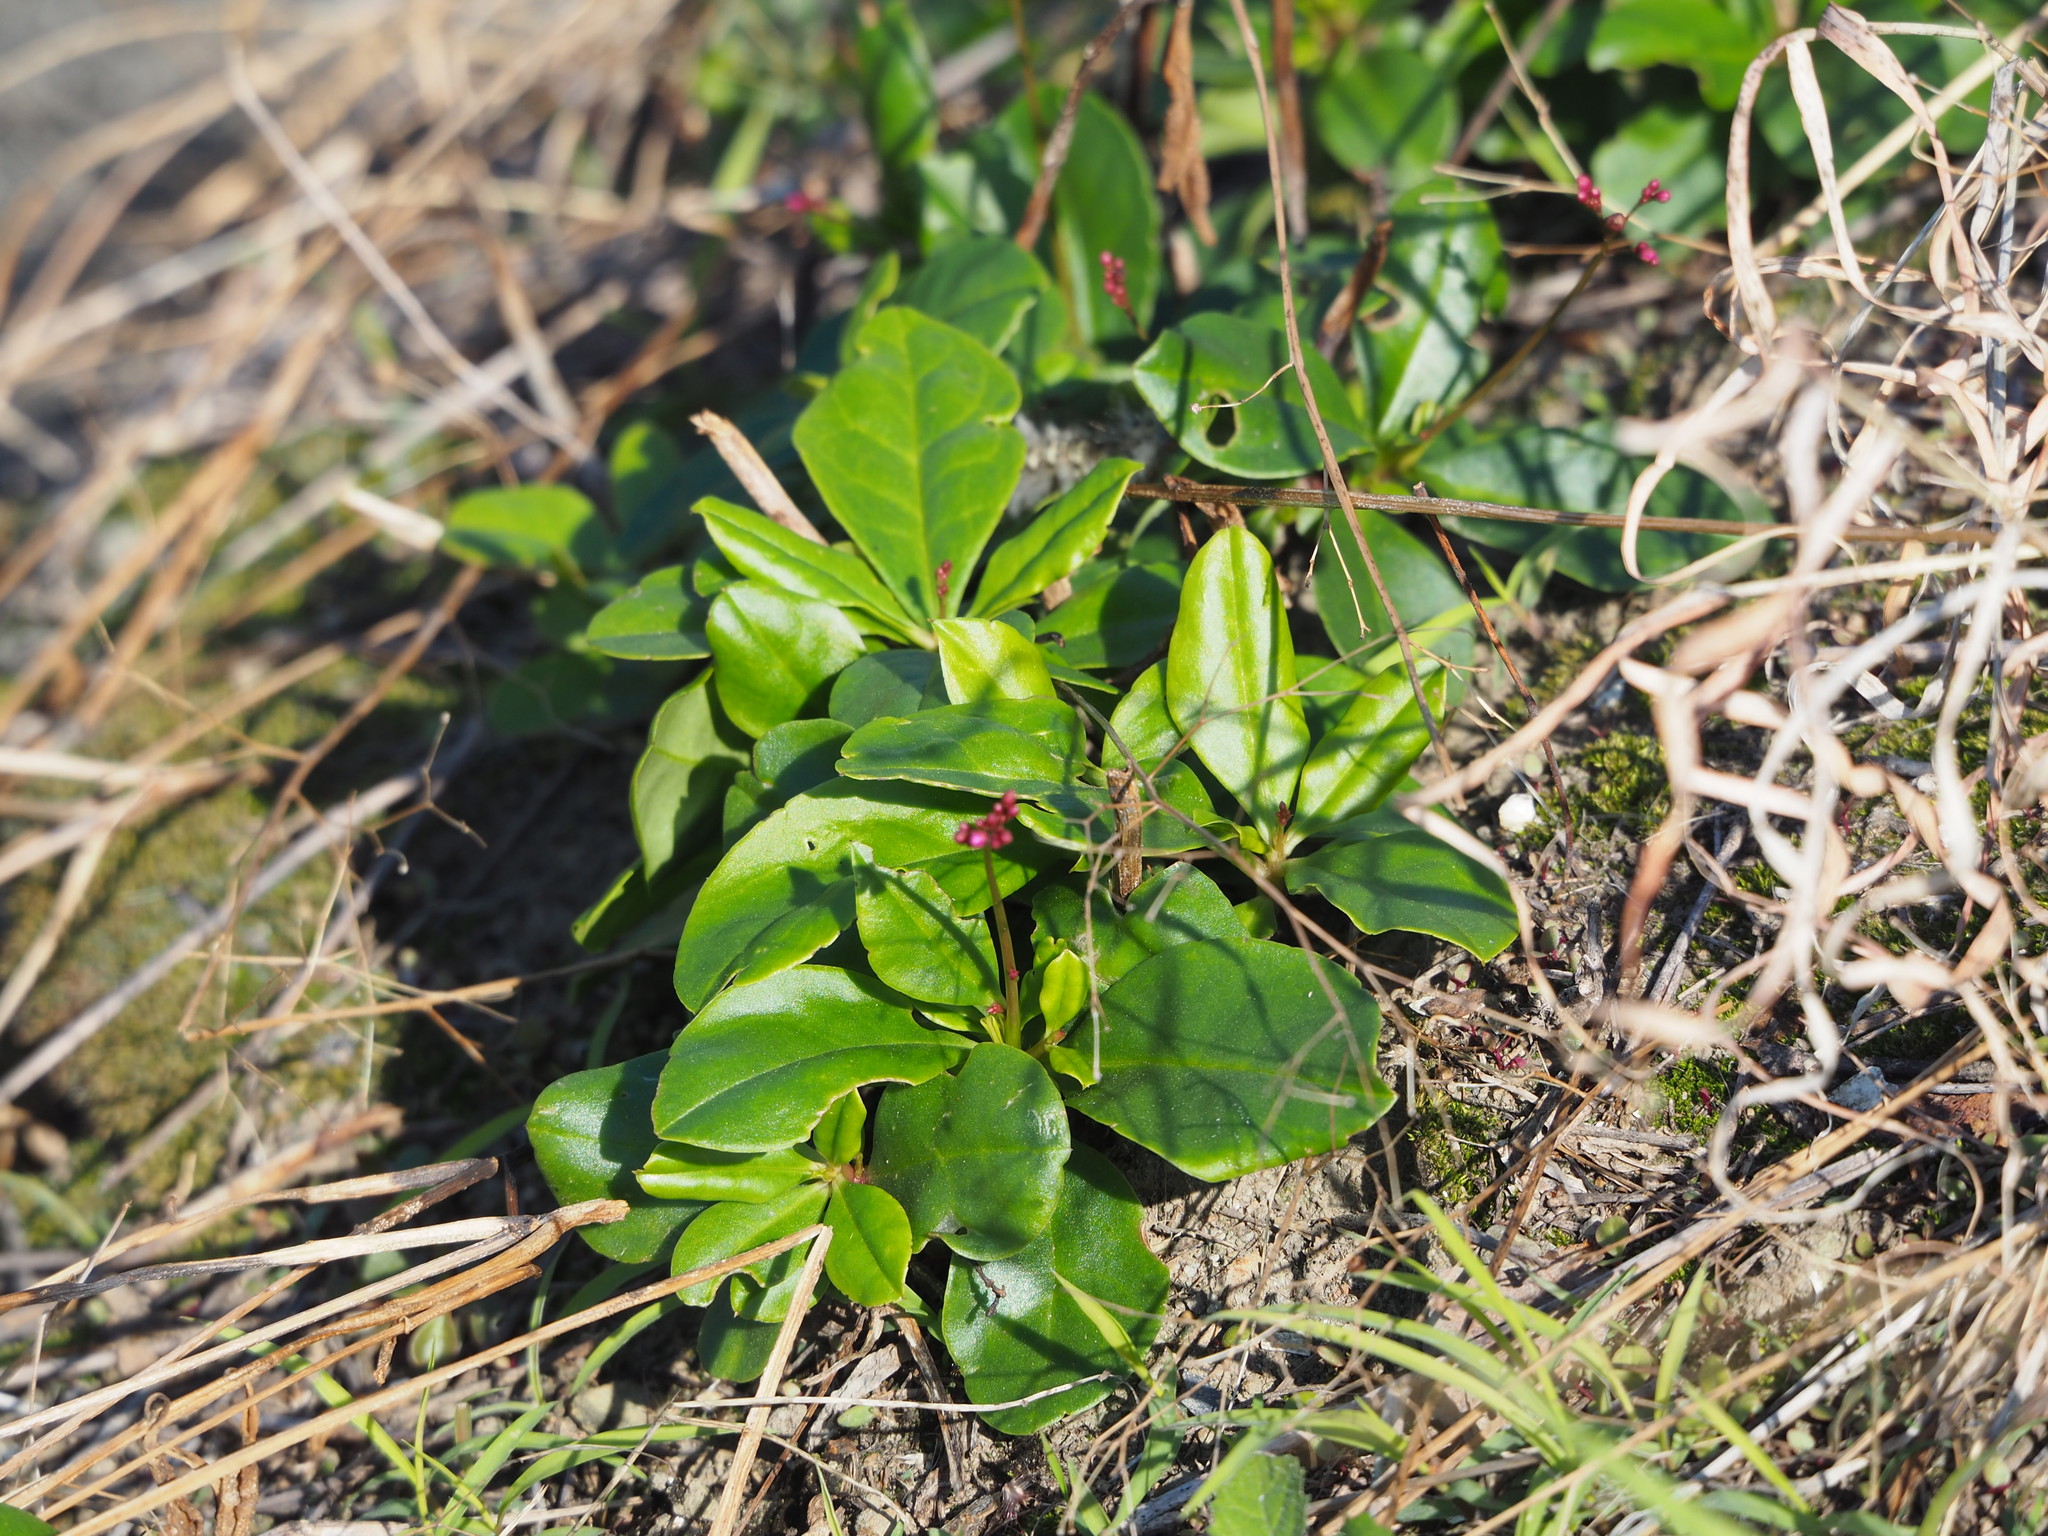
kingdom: Plantae
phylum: Tracheophyta
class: Magnoliopsida
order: Caryophyllales
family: Talinaceae
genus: Talinum
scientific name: Talinum paniculatum
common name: Jewels of opar
